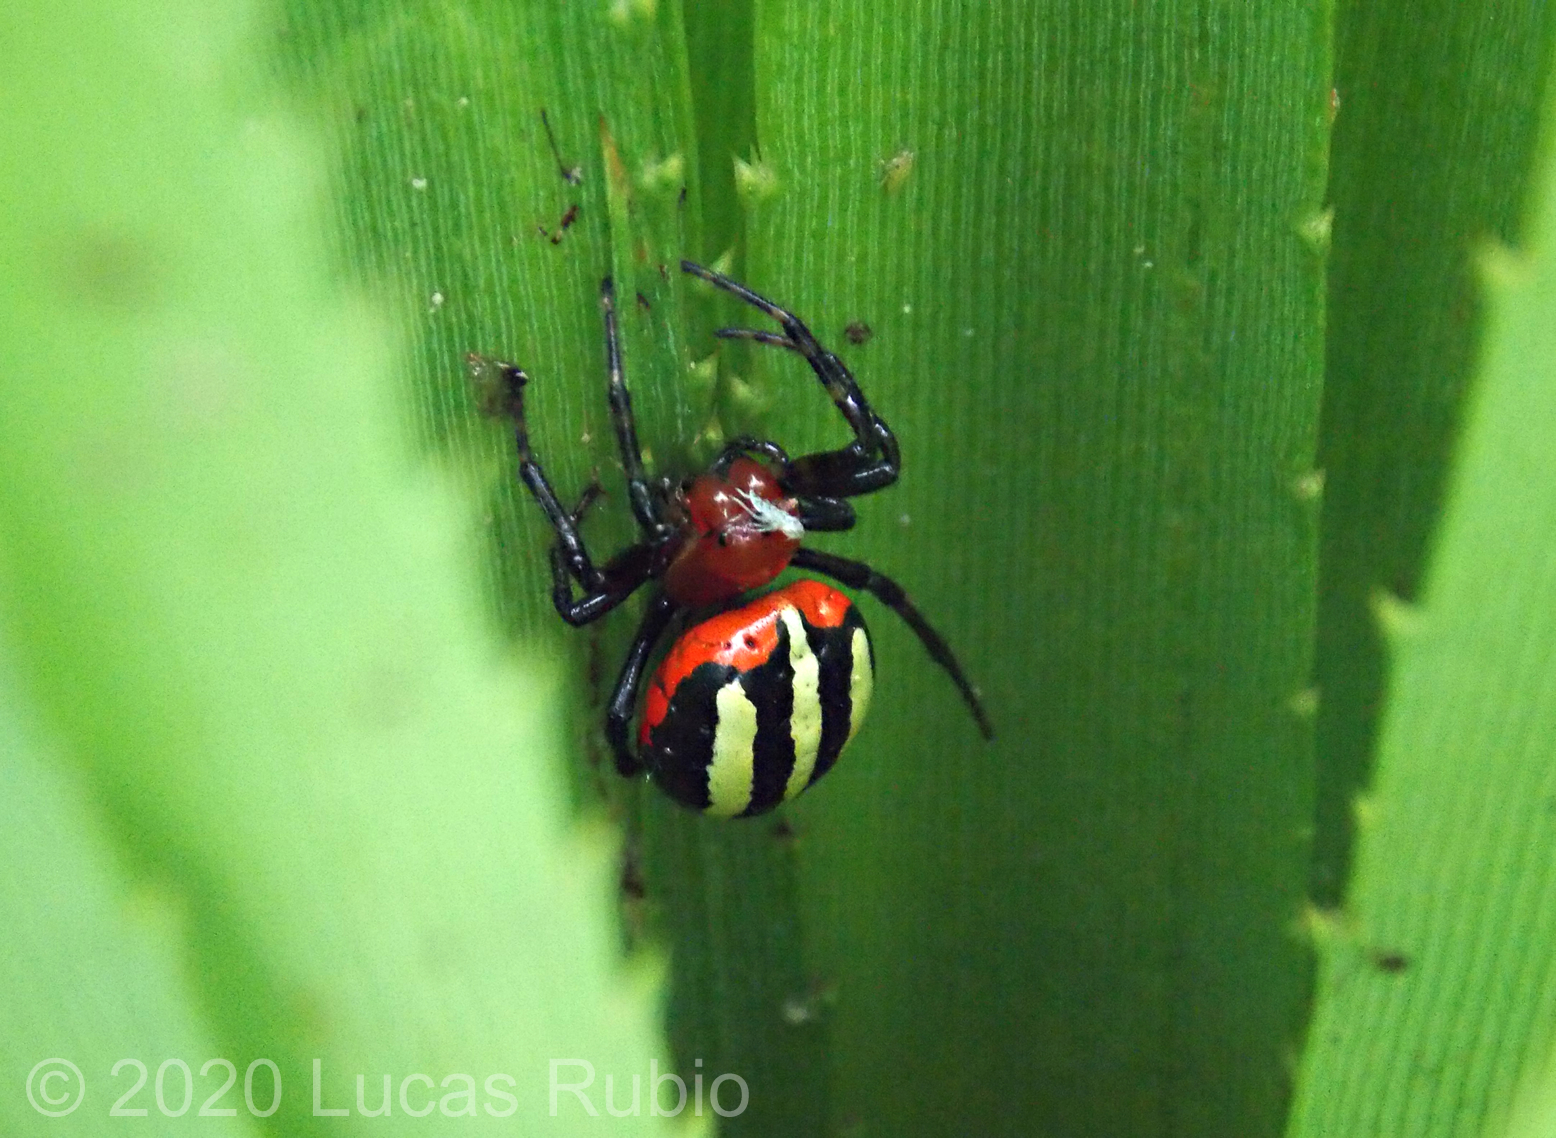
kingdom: Animalia
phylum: Arthropoda
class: Arachnida
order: Araneae
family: Araneidae
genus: Alpaida
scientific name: Alpaida quadrilorata
